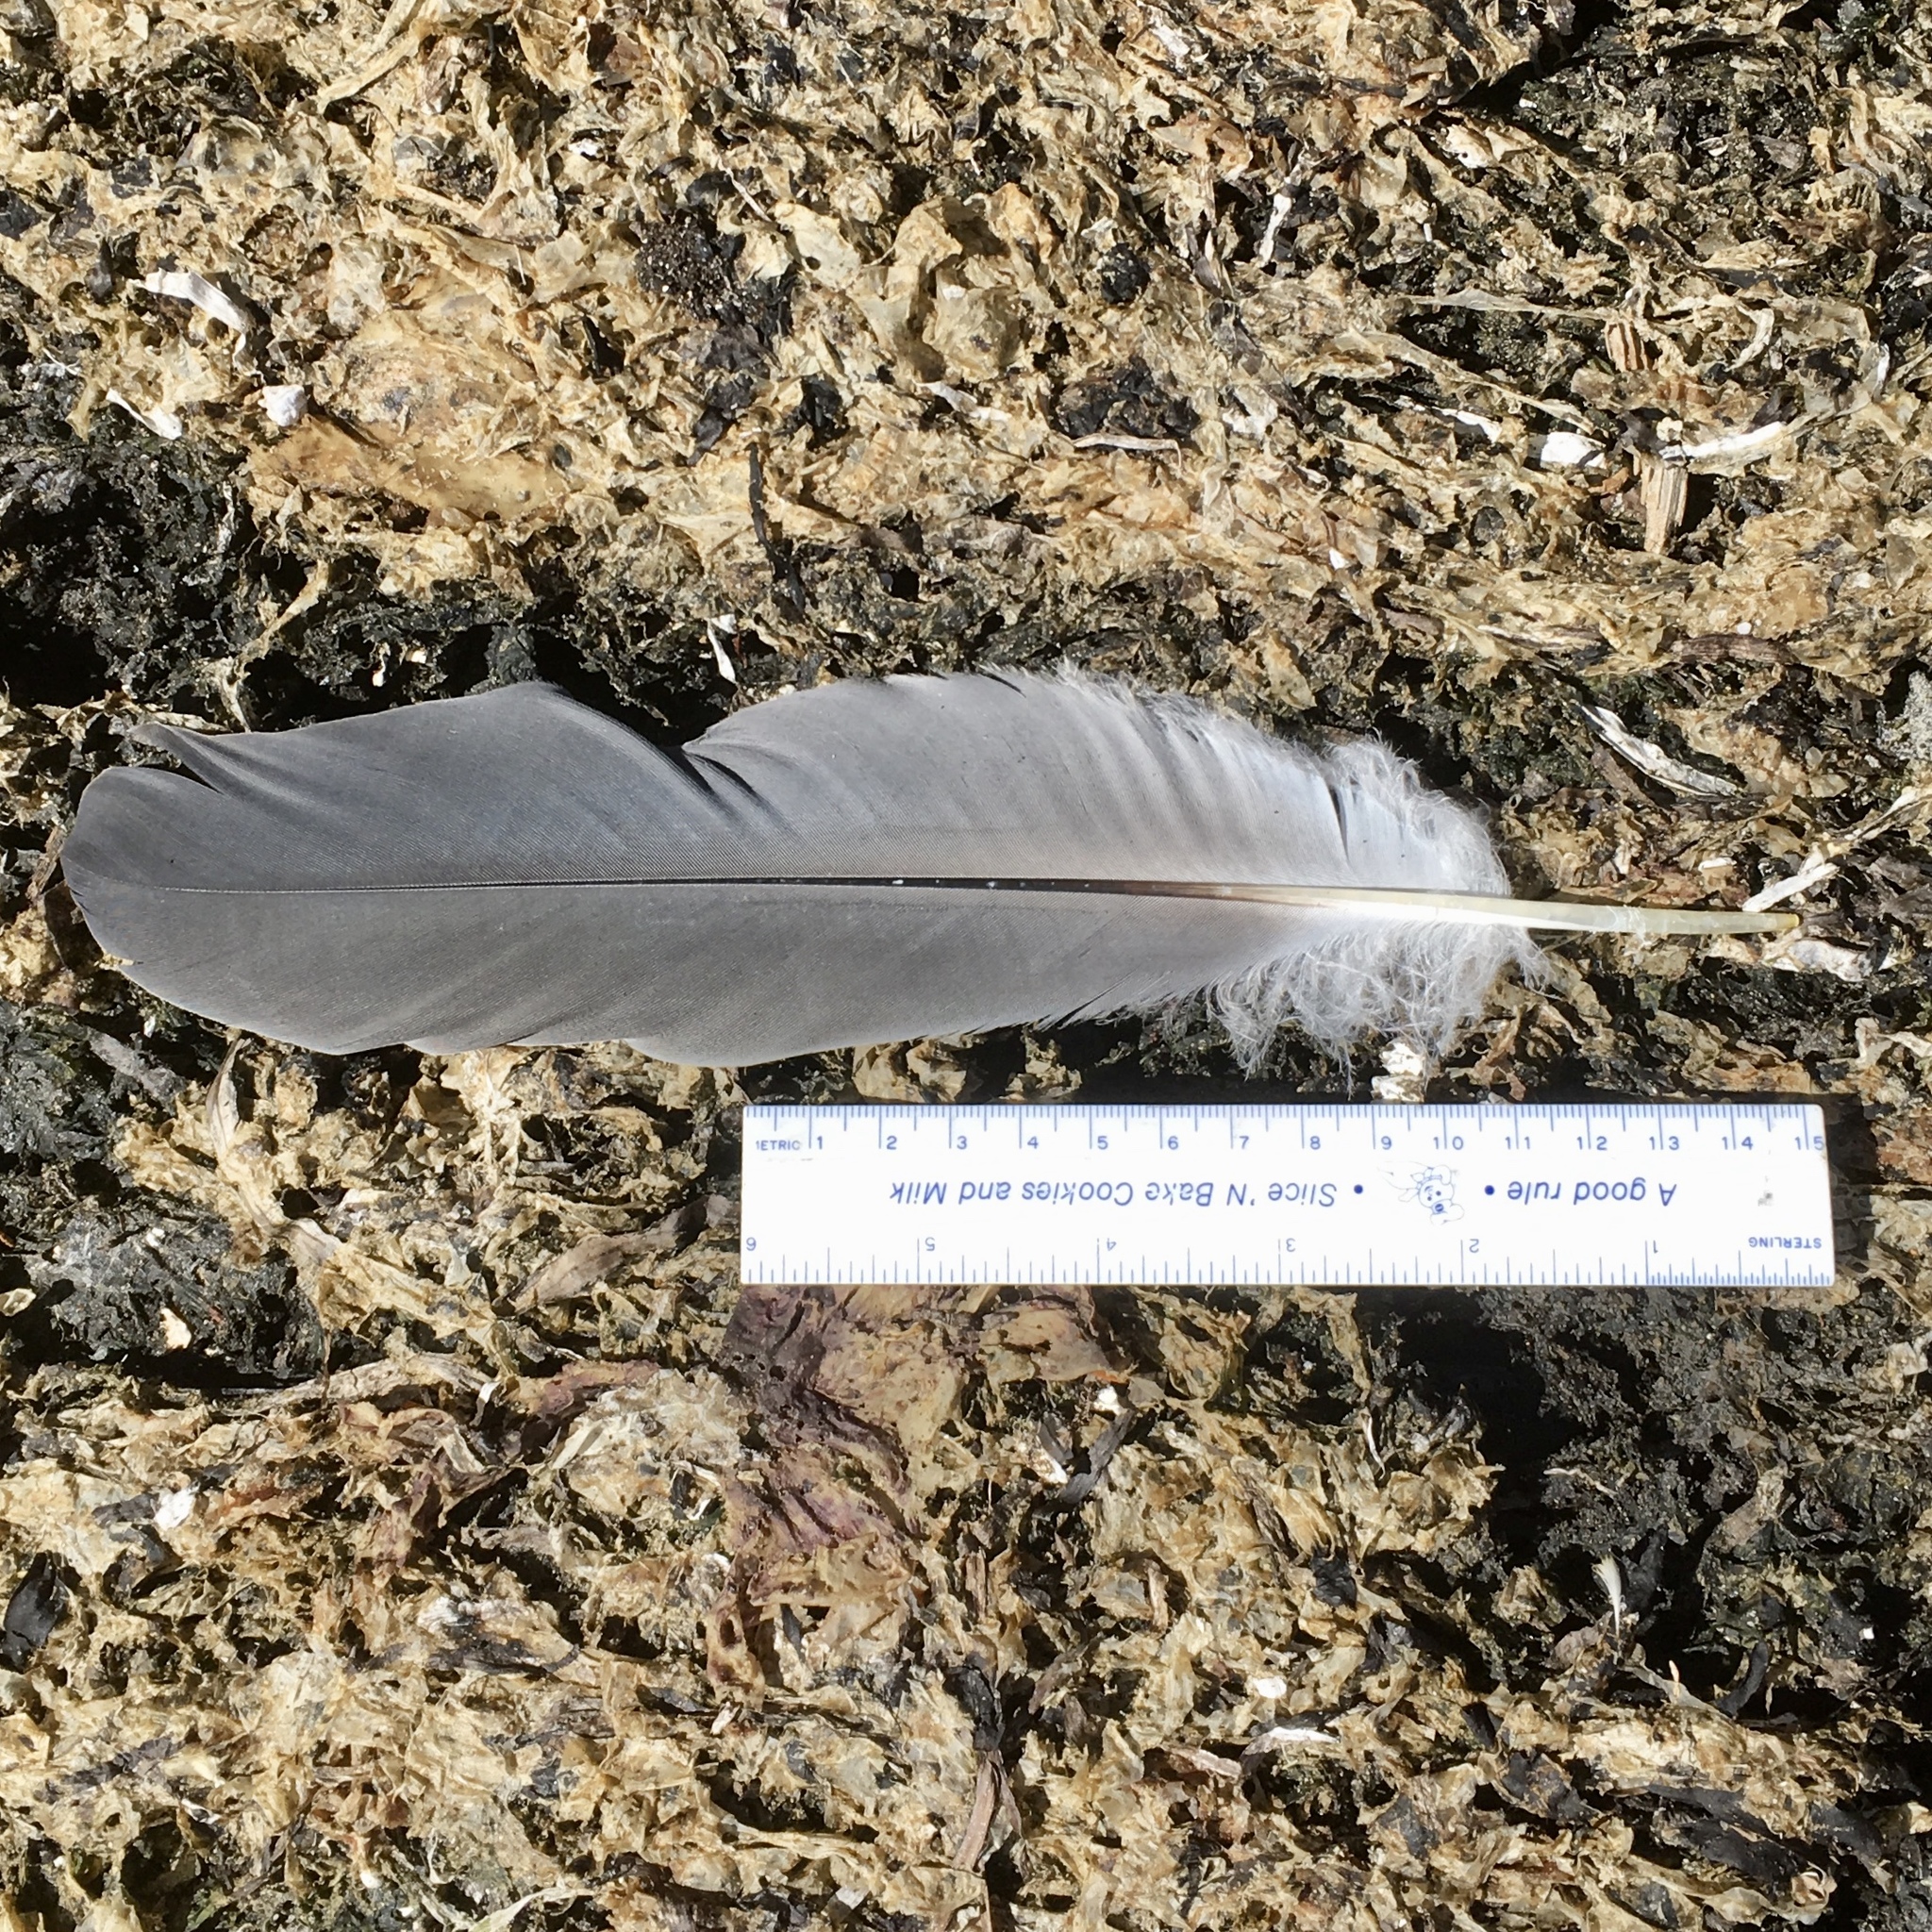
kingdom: Animalia
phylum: Chordata
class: Aves
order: Pelecaniformes
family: Ardeidae
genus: Ardea
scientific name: Ardea herodias
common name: Great blue heron
